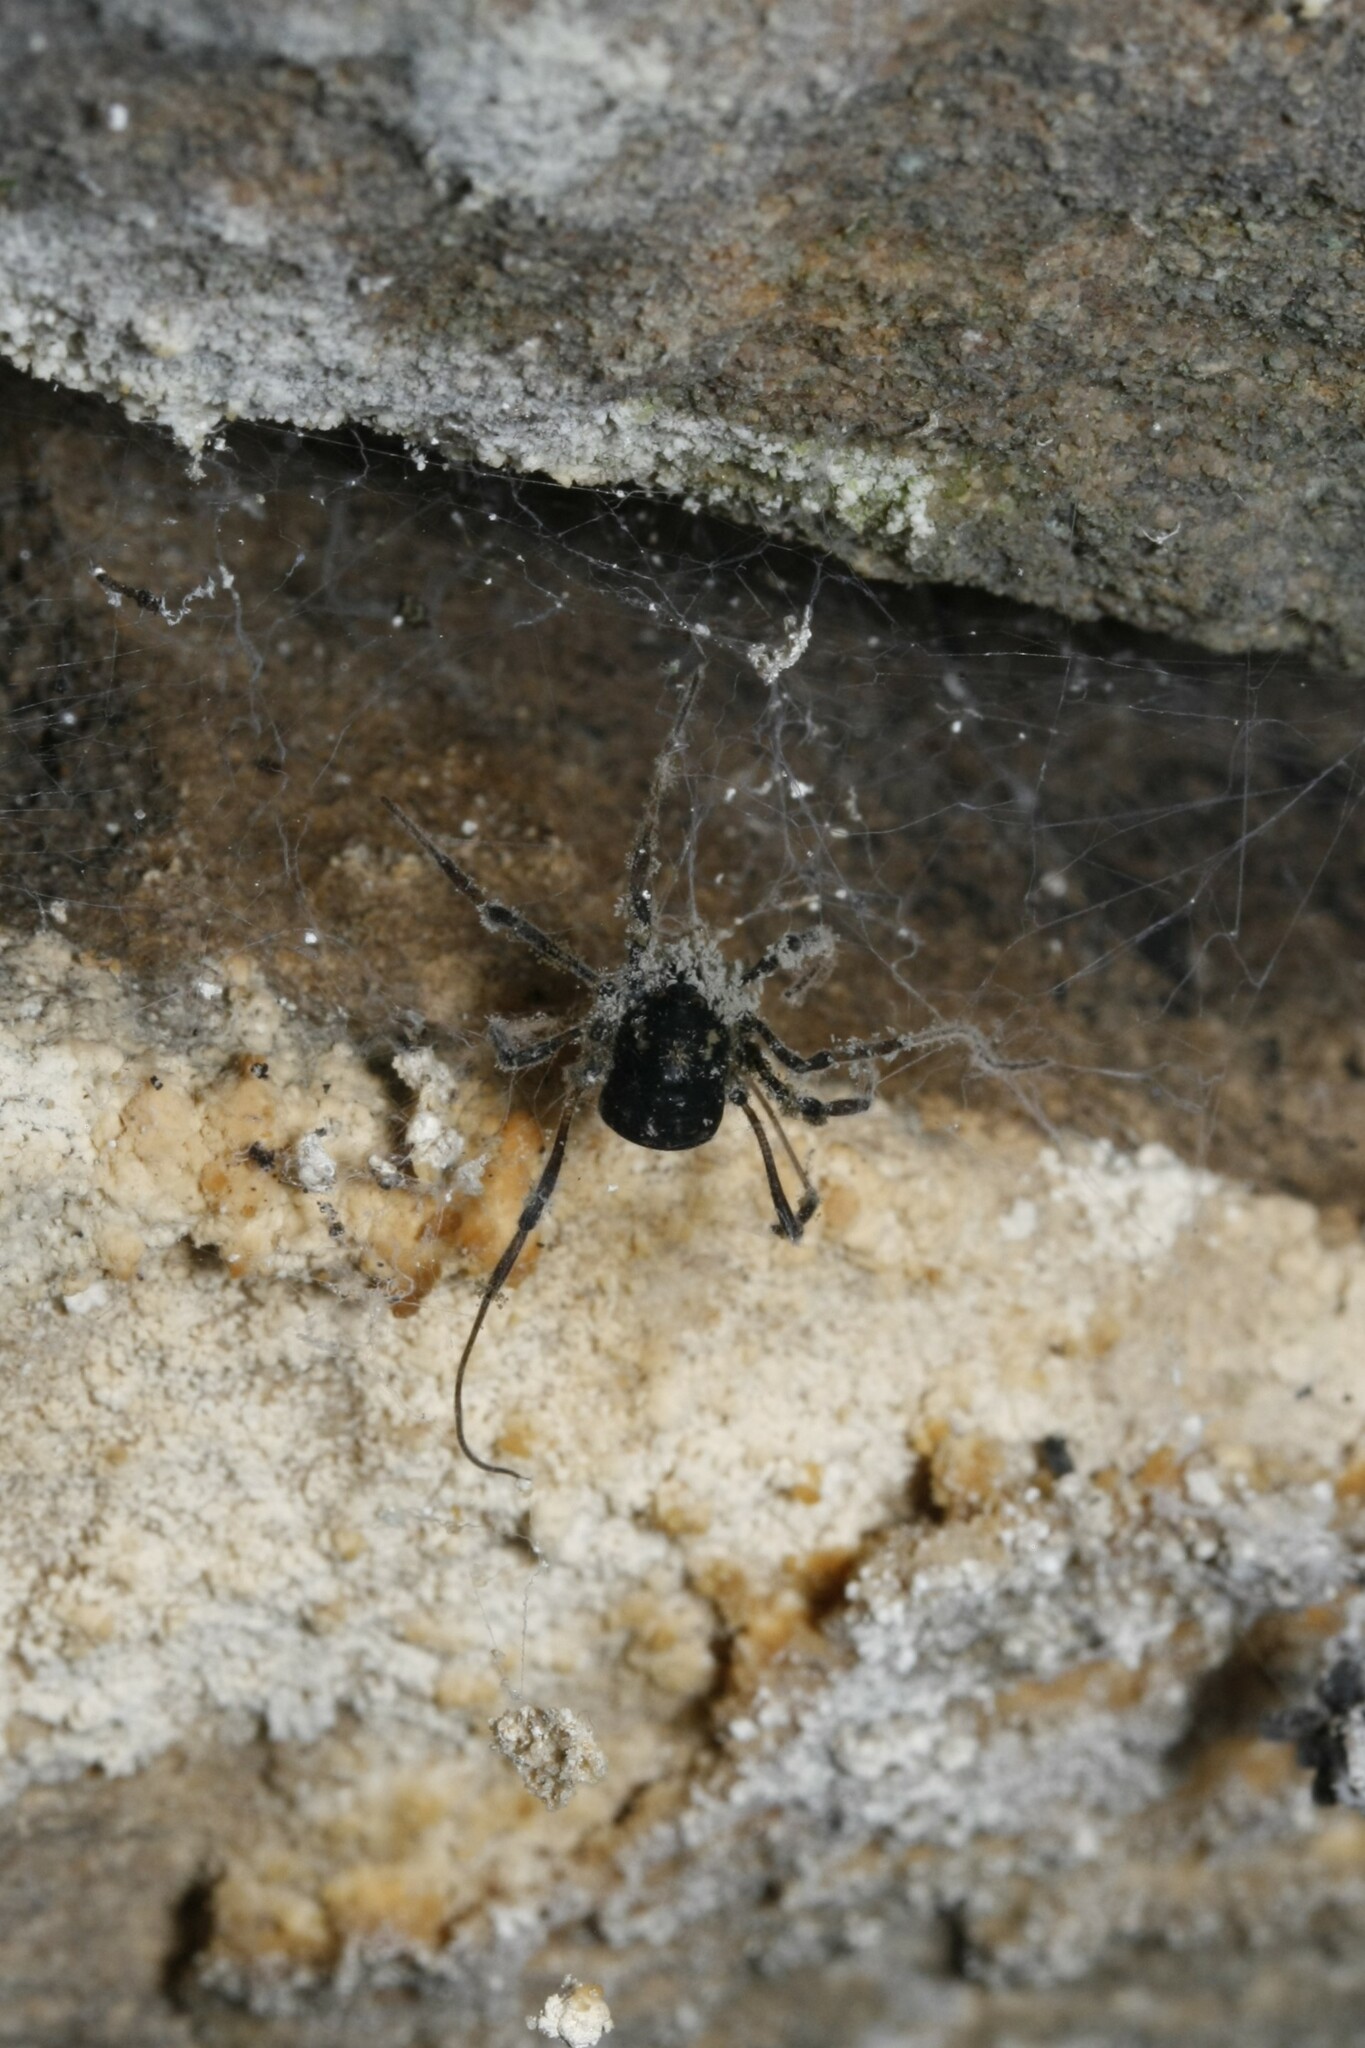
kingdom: Animalia
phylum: Arthropoda
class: Arachnida
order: Opiliones
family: Nemastomatidae
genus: Paranemastoma
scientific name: Paranemastoma quadripunctatum
